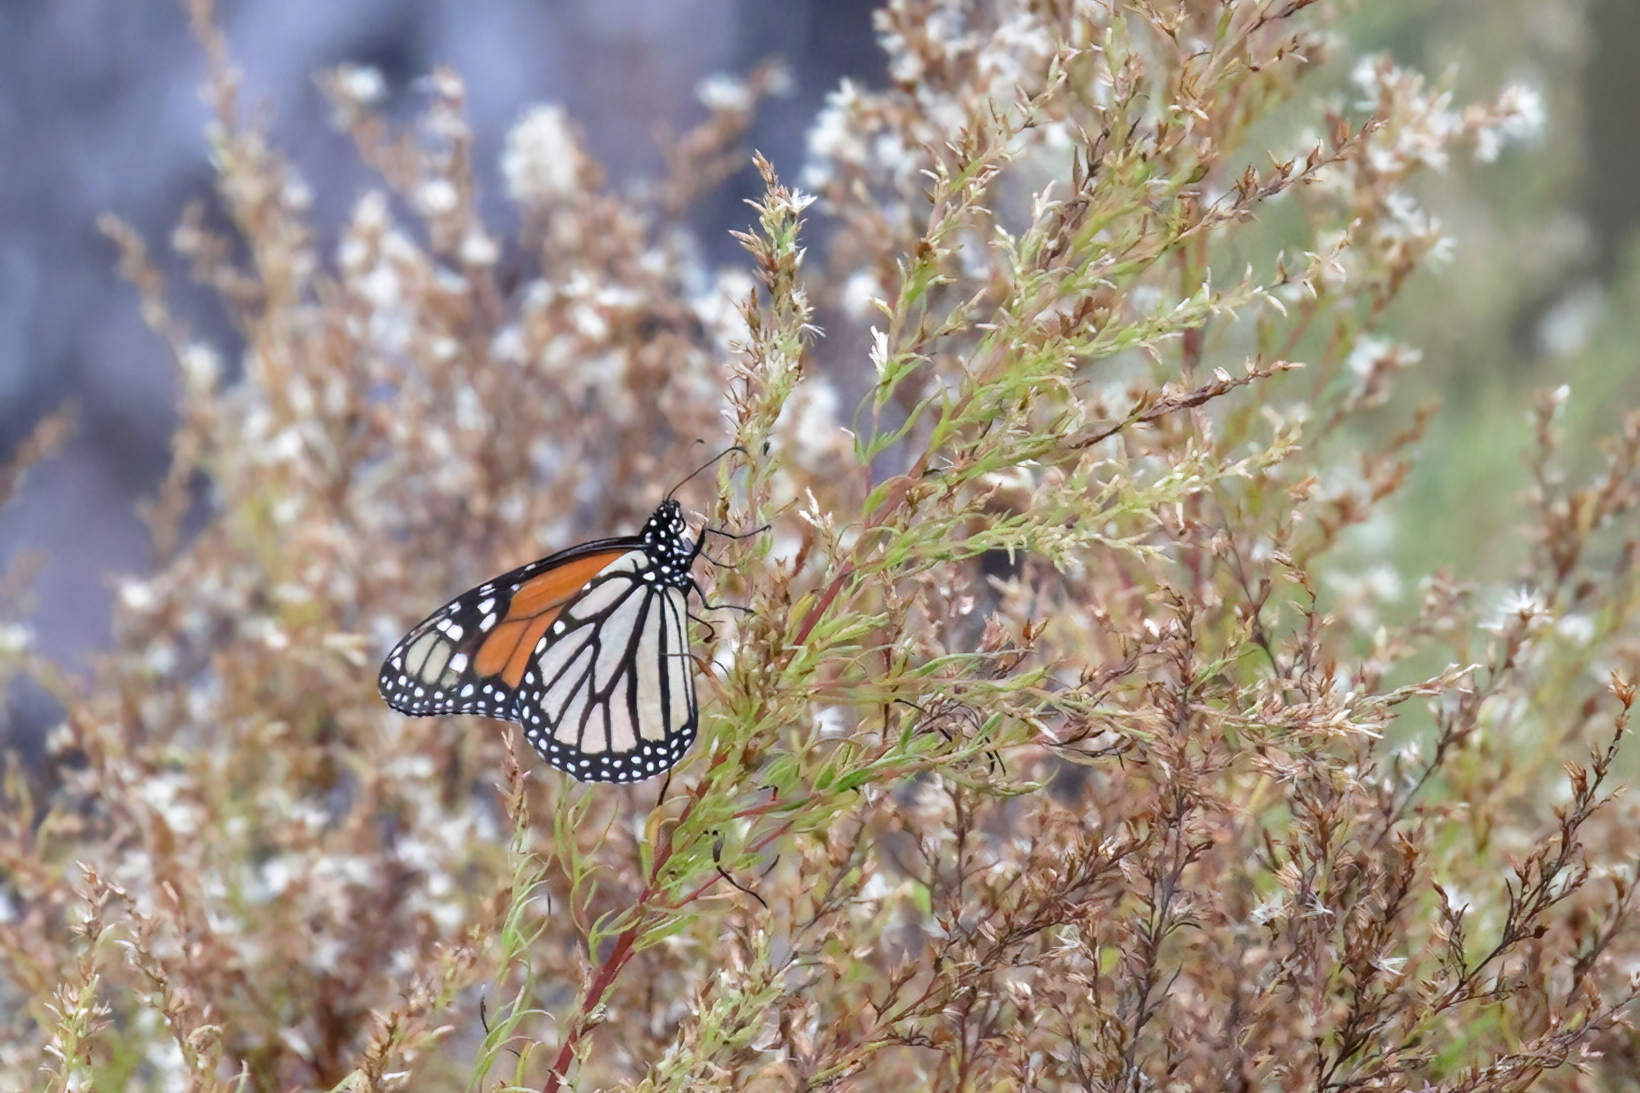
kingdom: Animalia
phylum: Arthropoda
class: Insecta
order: Lepidoptera
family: Nymphalidae
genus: Danaus
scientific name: Danaus plexippus
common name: Monarch
